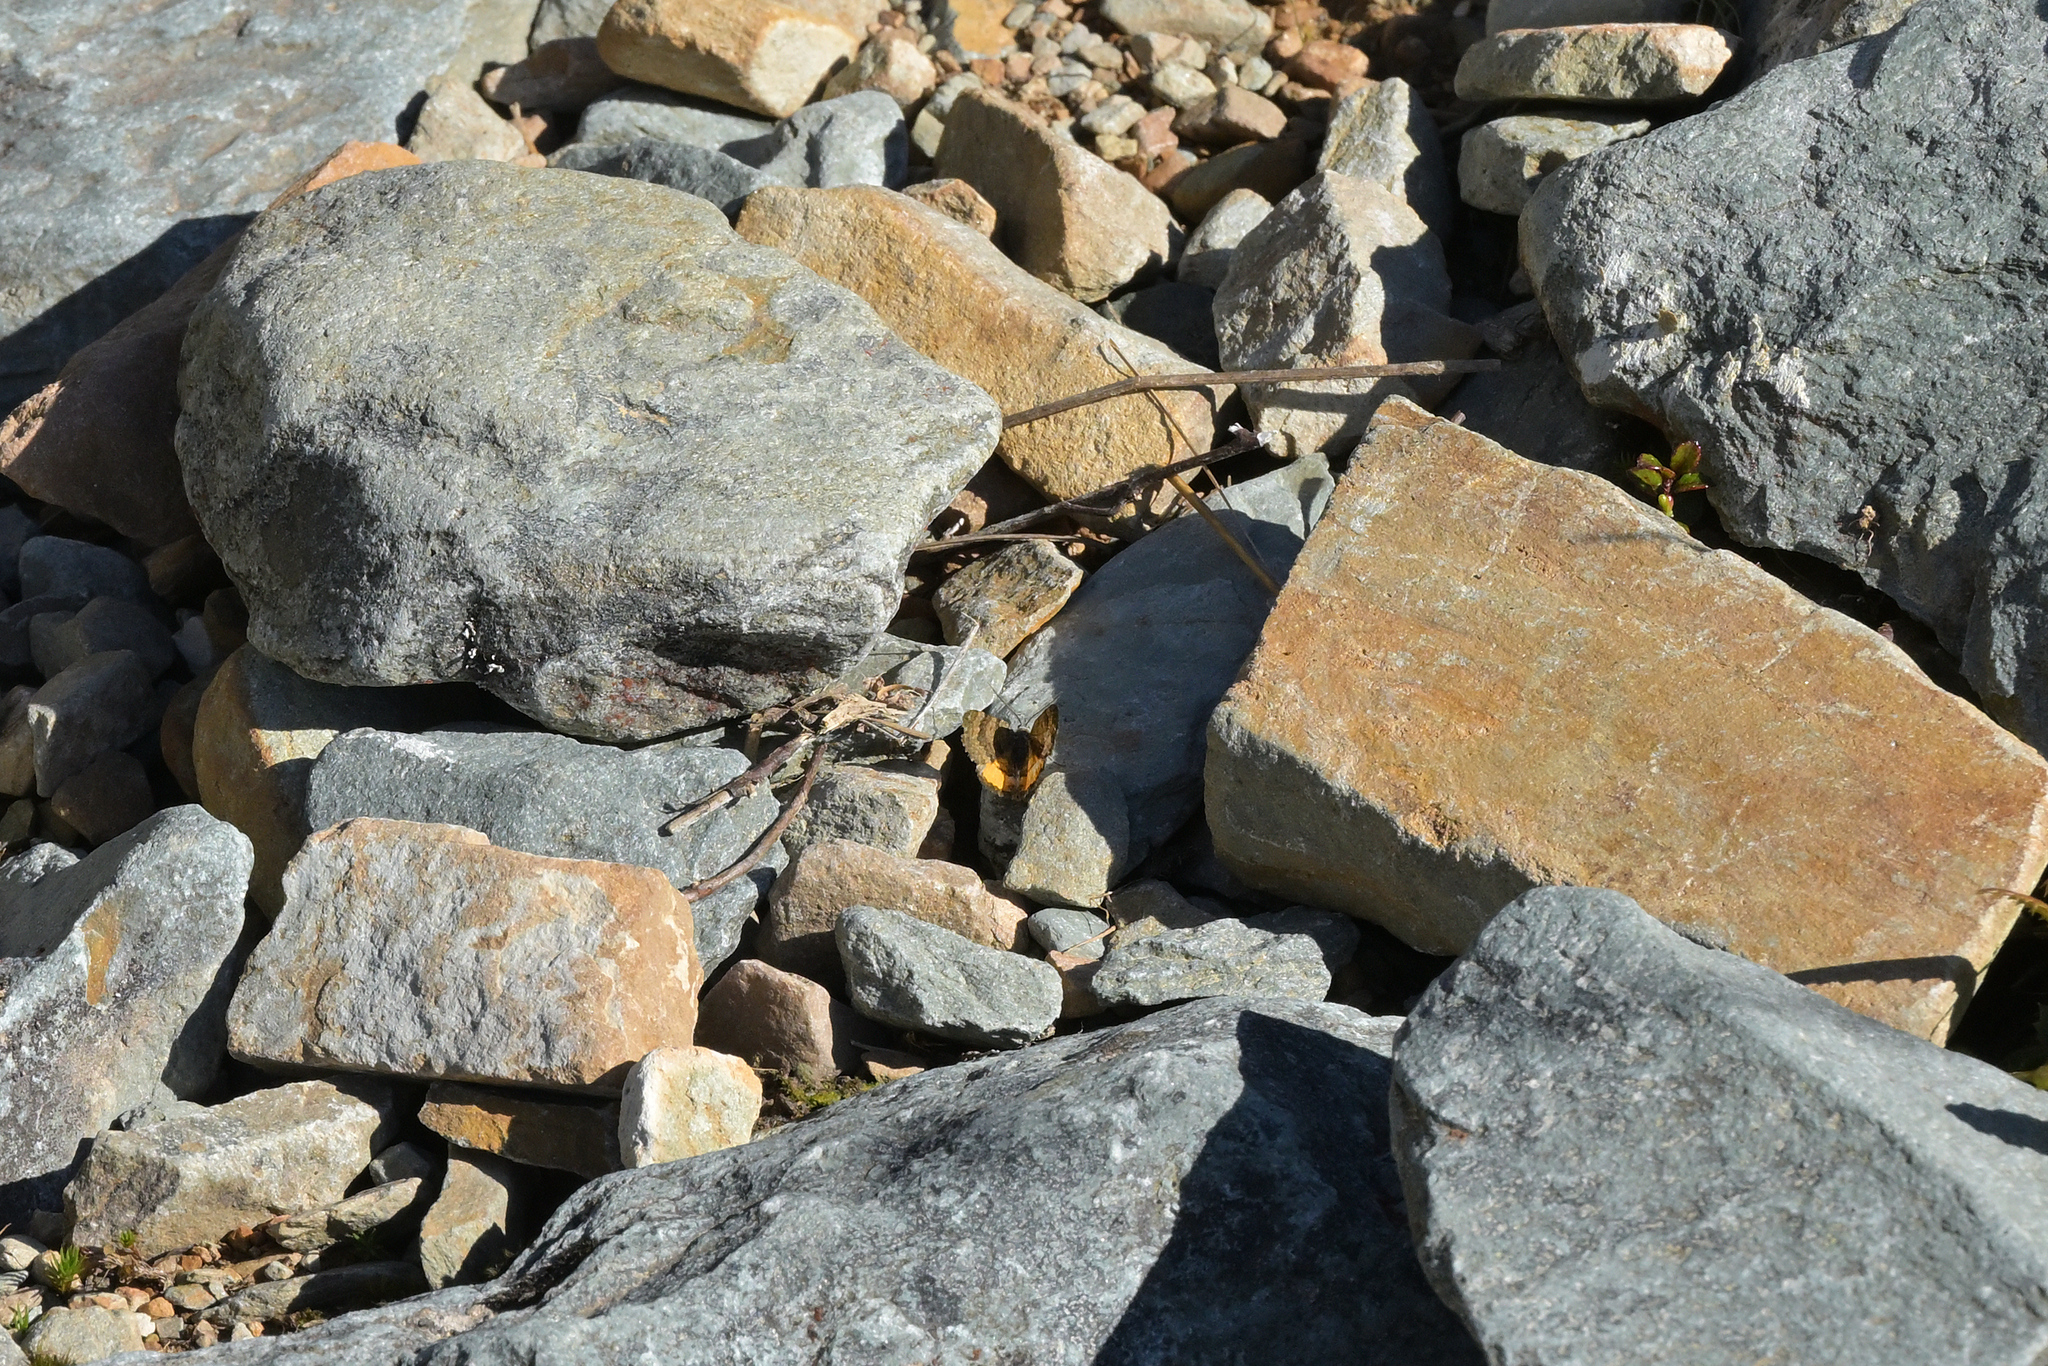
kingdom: Animalia
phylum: Arthropoda
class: Insecta
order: Lepidoptera
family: Geometridae
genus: Paranotoreas
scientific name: Paranotoreas brephosata
